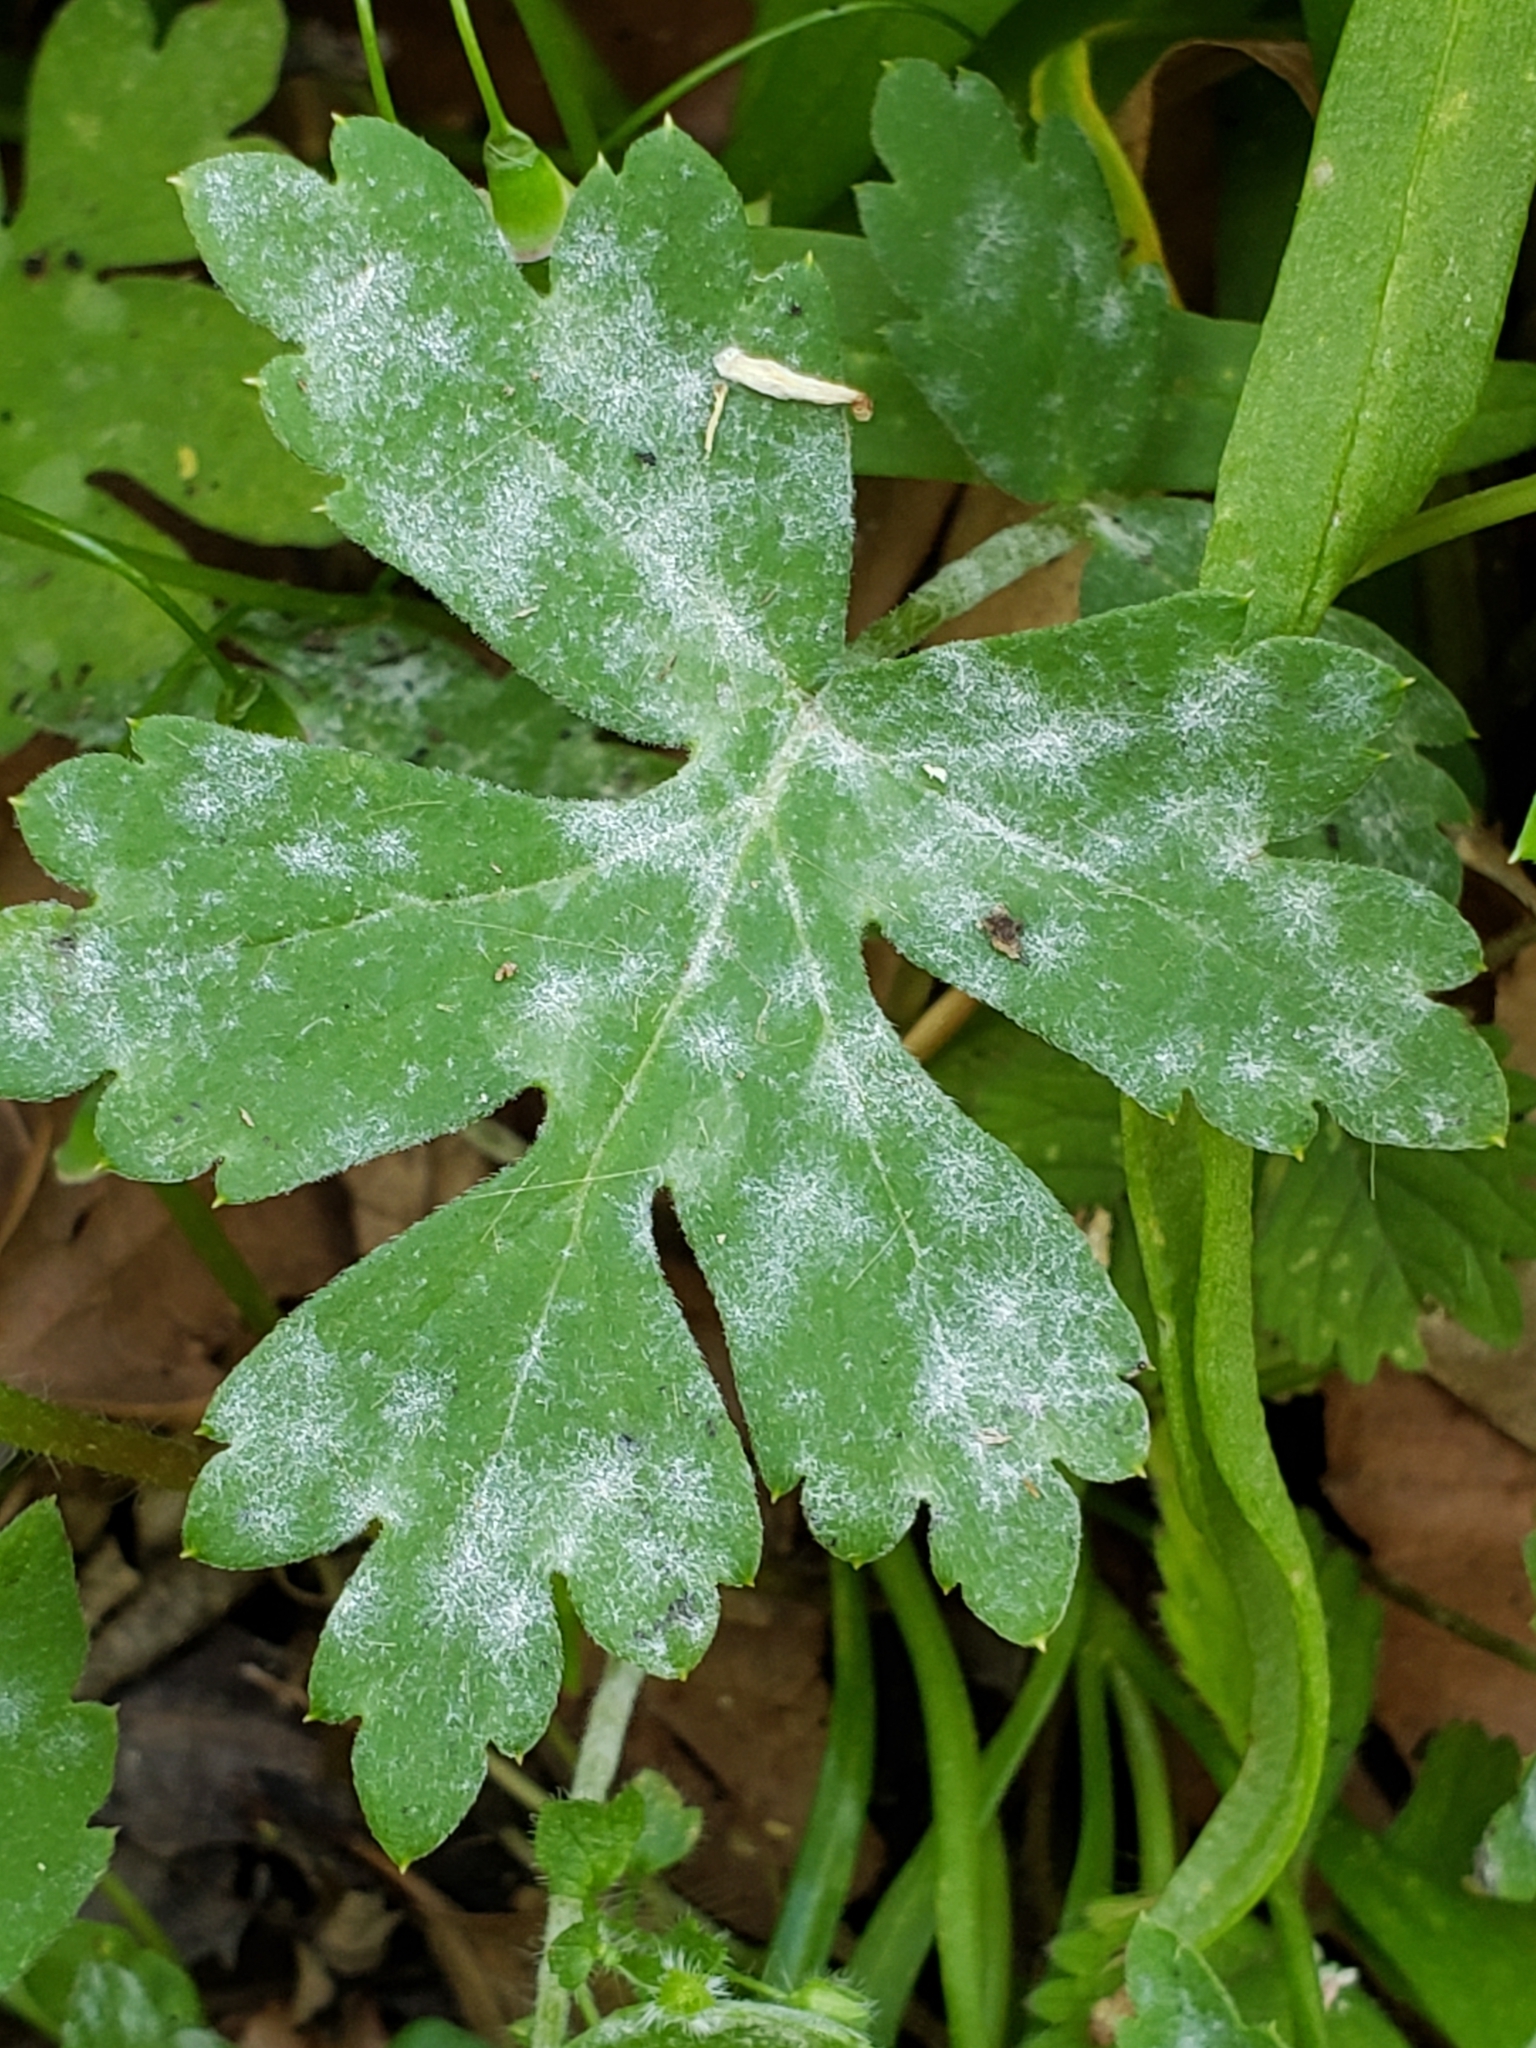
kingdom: Fungi
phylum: Ascomycota
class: Leotiomycetes
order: Helotiales
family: Erysiphaceae
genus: Golovinomyces
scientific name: Golovinomyces hydrophyllacearum
